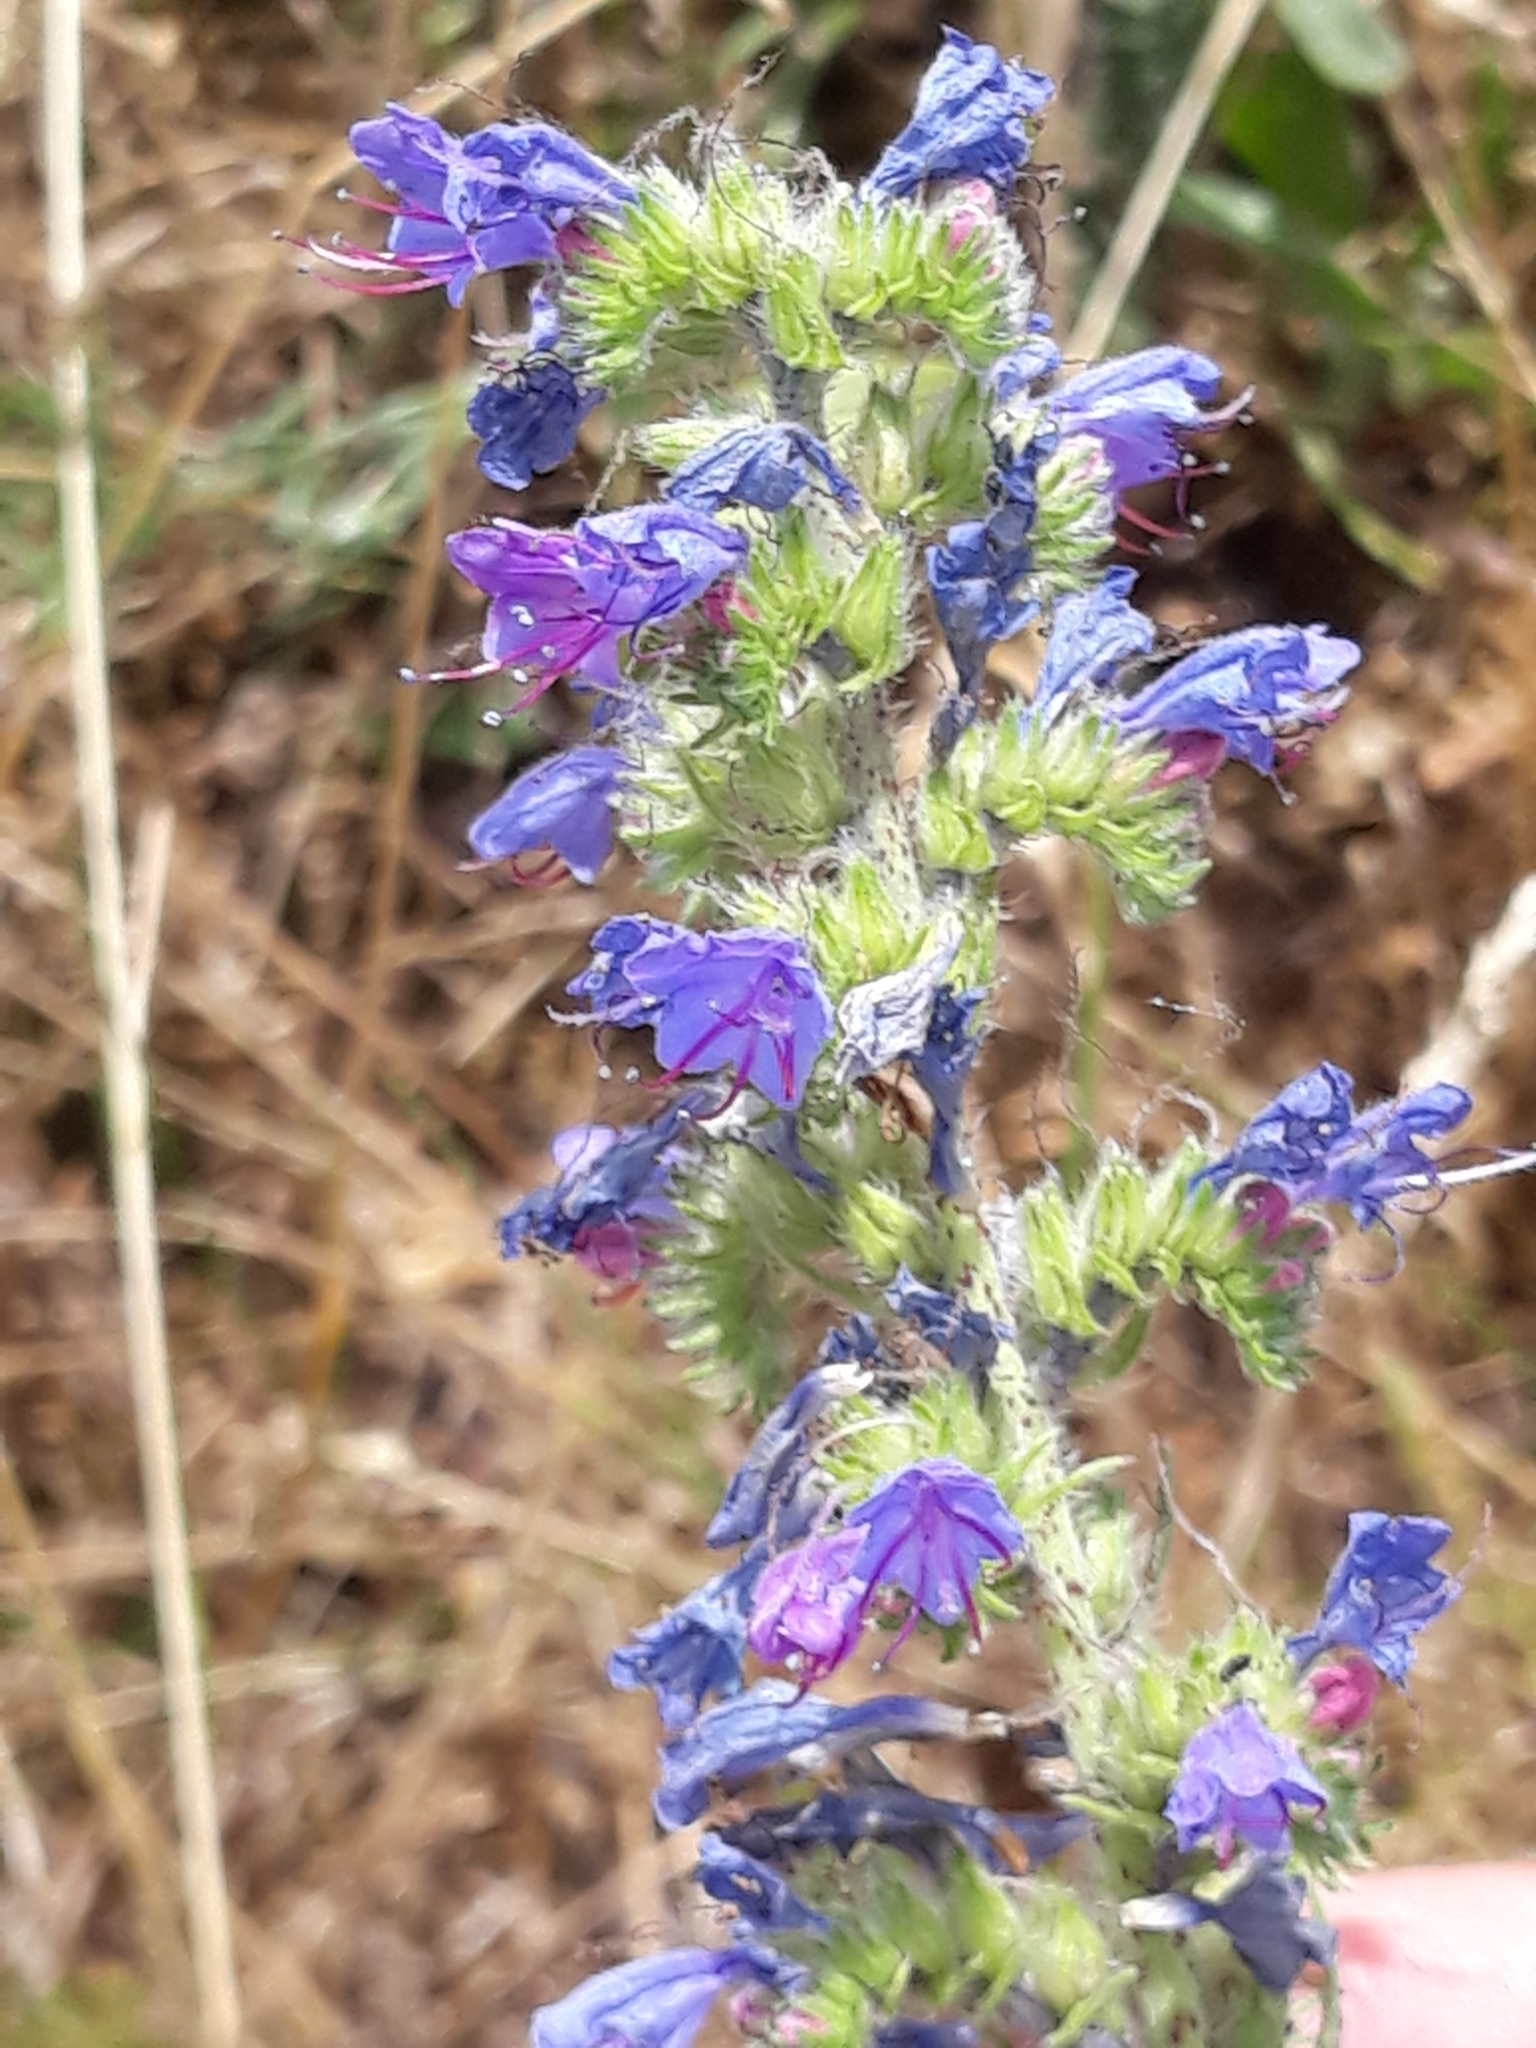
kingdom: Plantae
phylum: Tracheophyta
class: Magnoliopsida
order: Boraginales
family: Boraginaceae
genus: Echium
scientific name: Echium vulgare
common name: Common viper's bugloss
